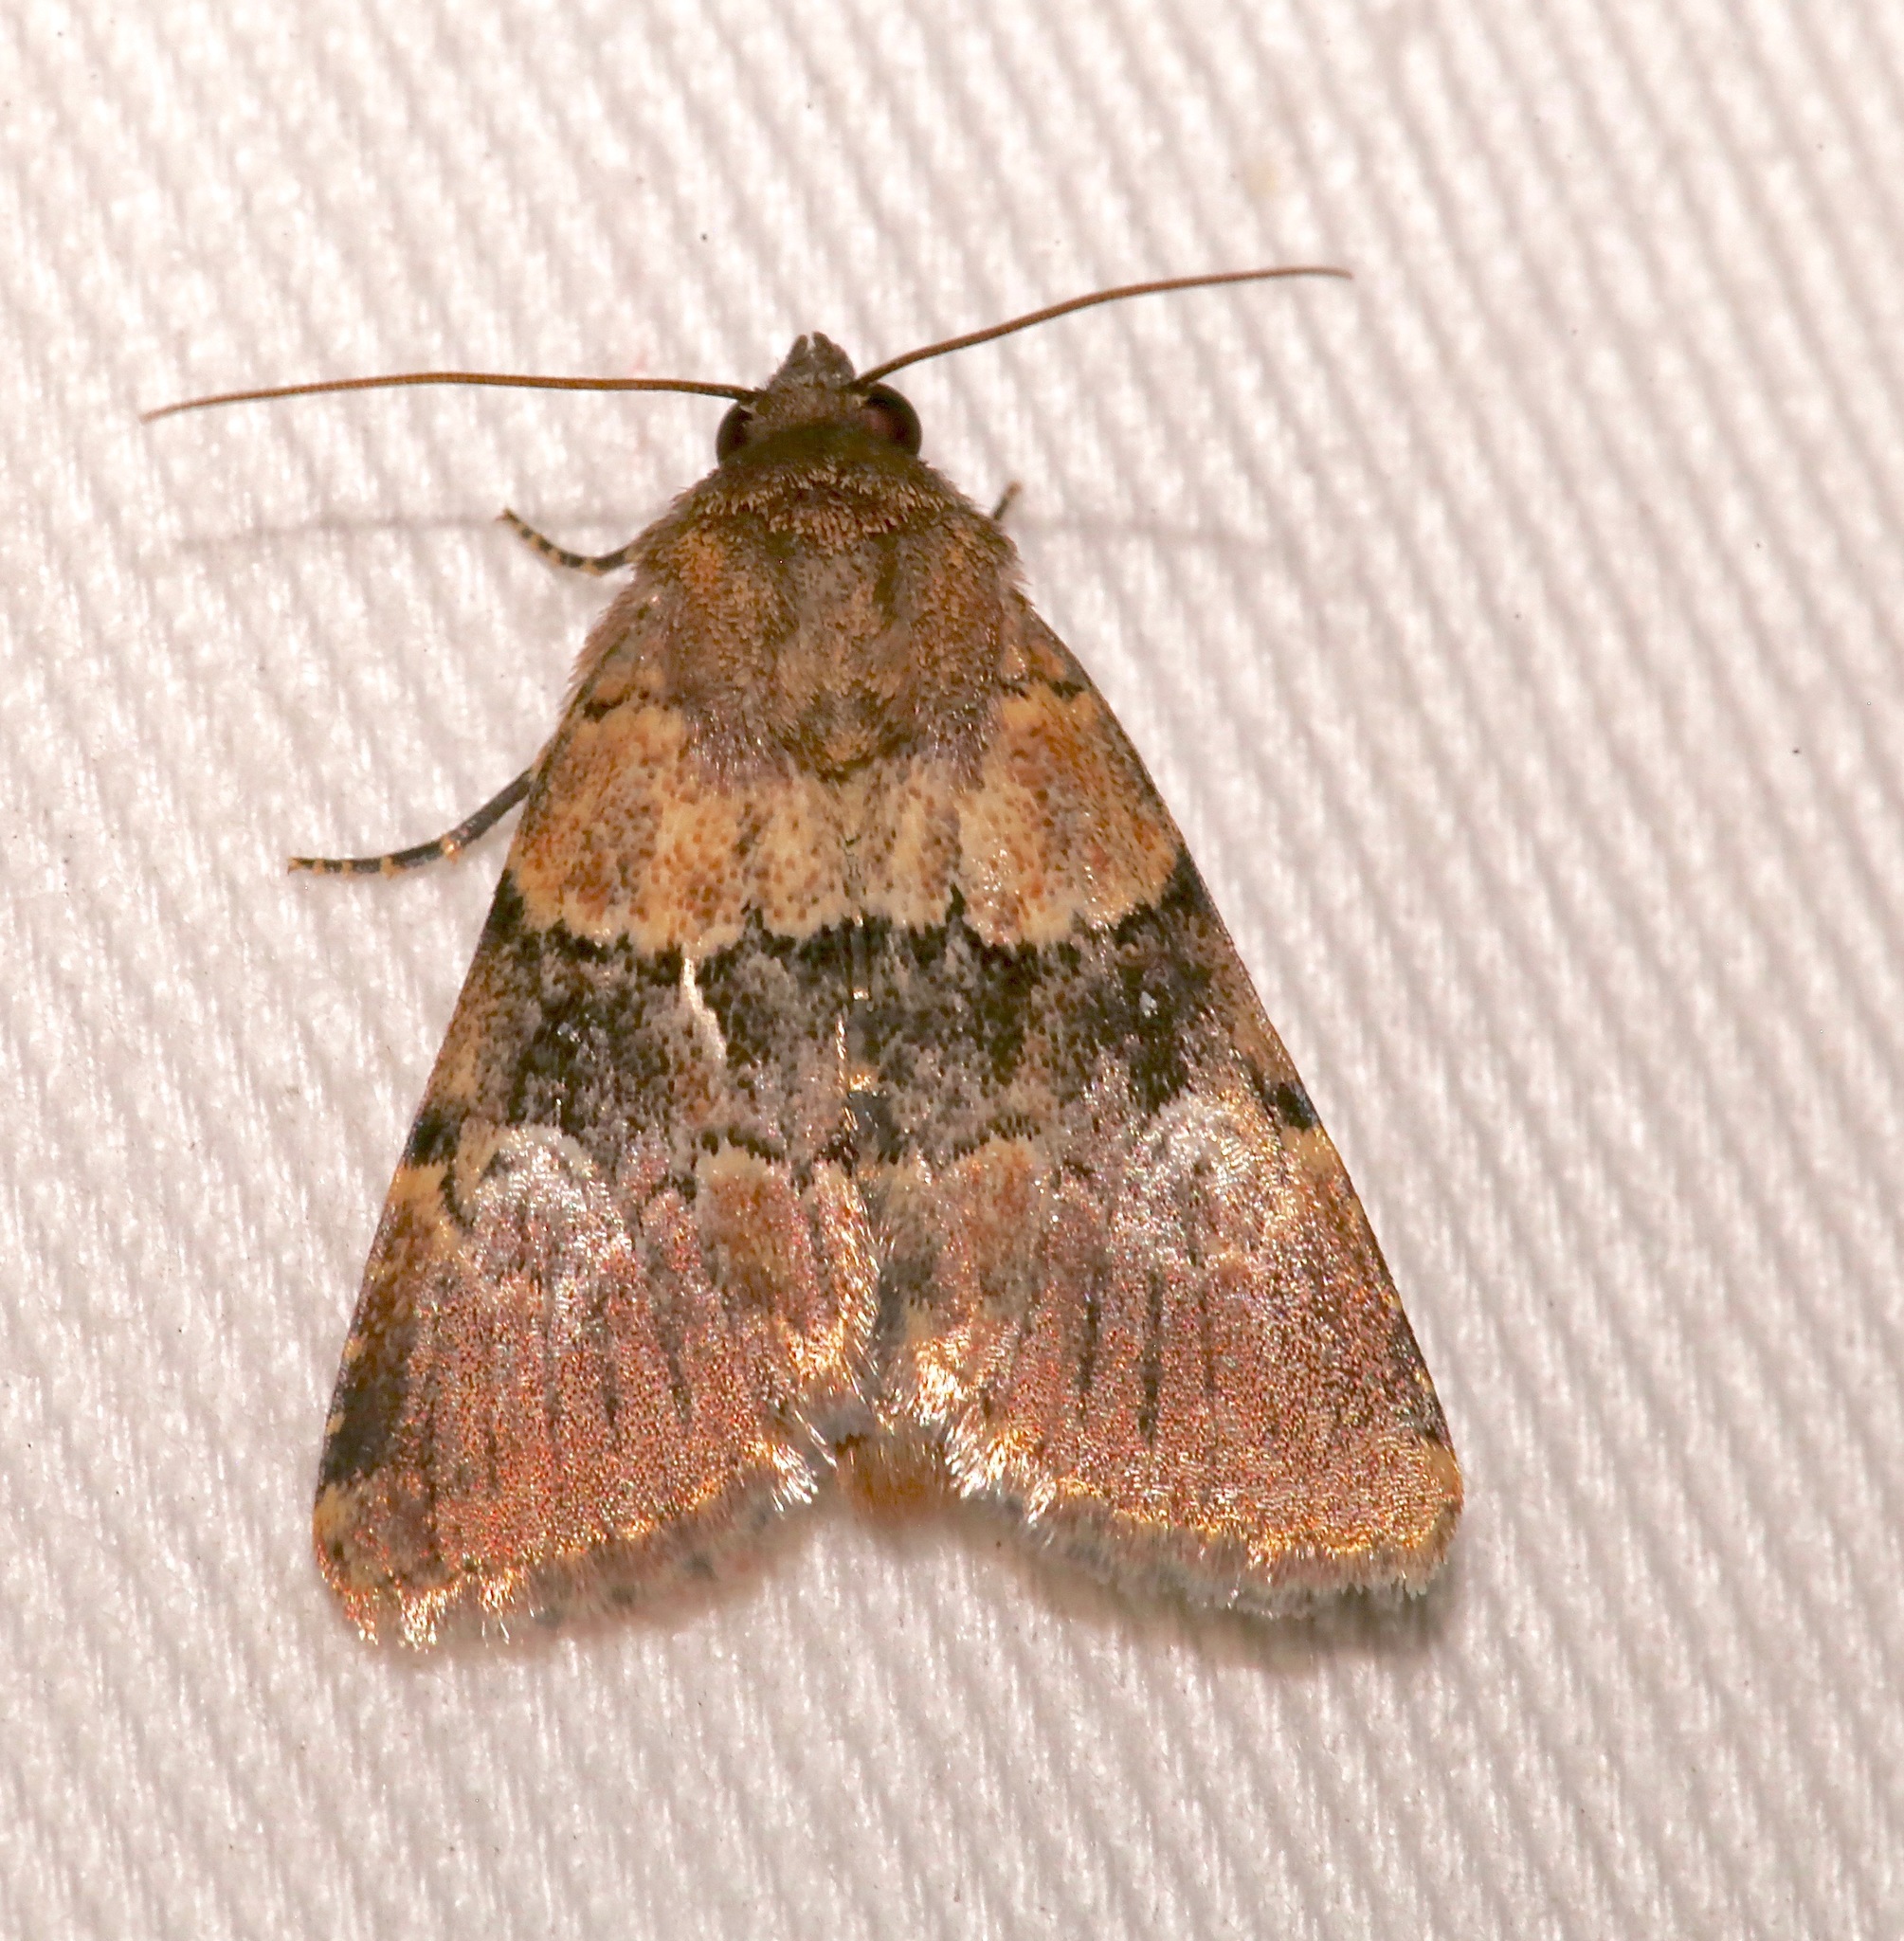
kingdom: Animalia
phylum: Arthropoda
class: Insecta
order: Lepidoptera
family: Noctuidae
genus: Properigea
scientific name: Properigea continens
